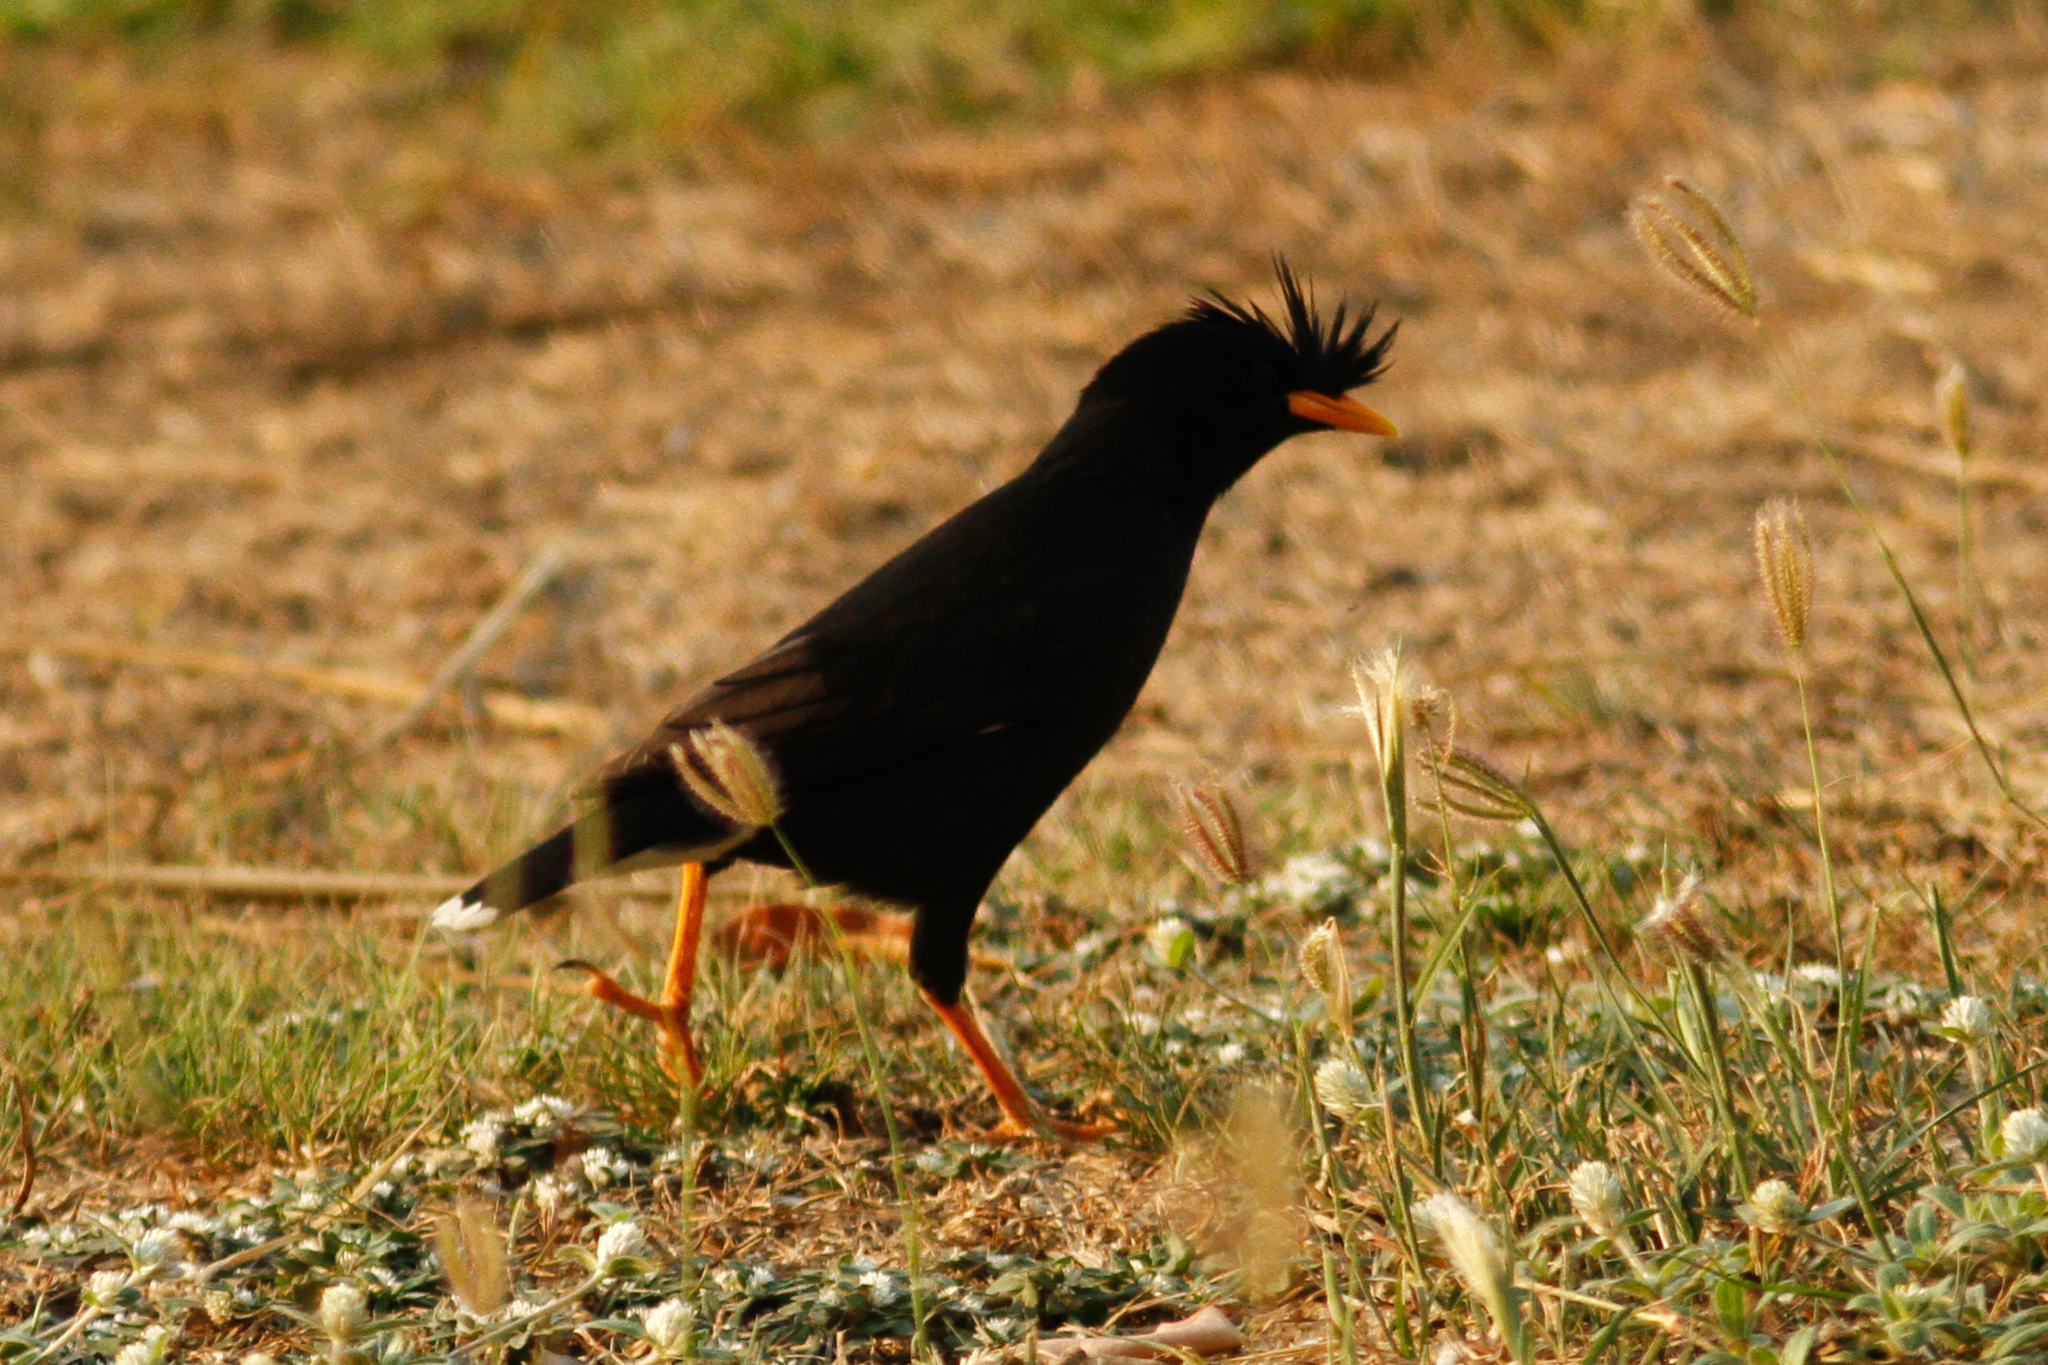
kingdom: Animalia
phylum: Chordata
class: Aves
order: Passeriformes
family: Sturnidae
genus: Acridotheres
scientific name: Acridotheres grandis
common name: Great myna
